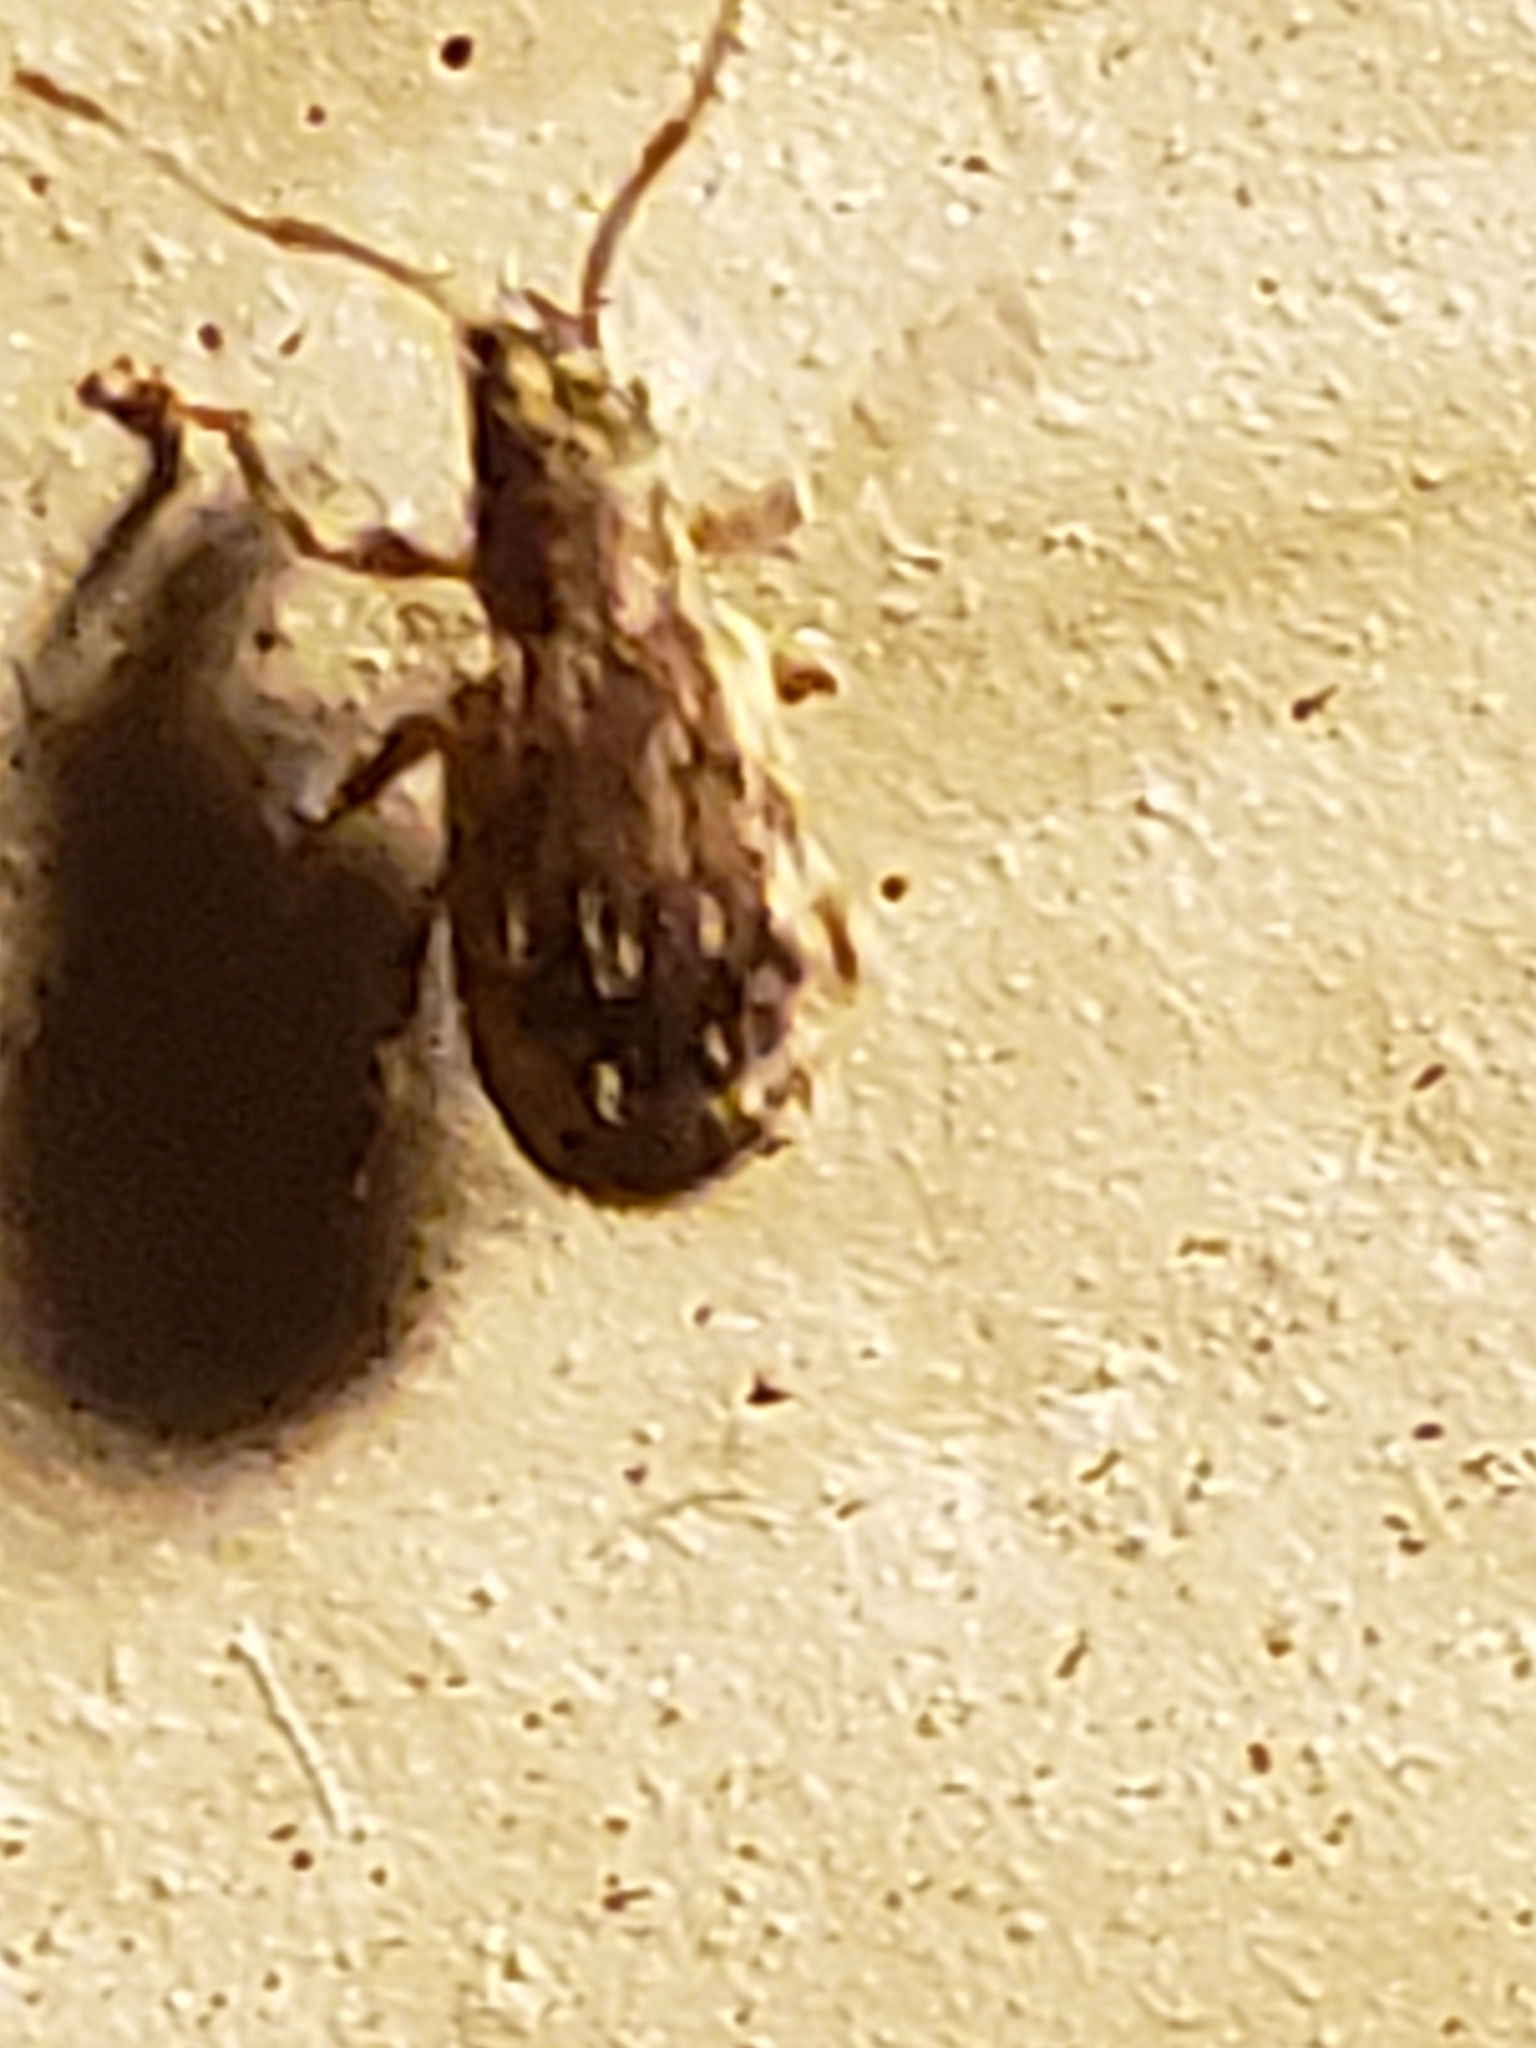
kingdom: Animalia
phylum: Arthropoda
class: Insecta
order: Coleoptera
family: Curculionidae
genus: Pseudoedophrys
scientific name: Pseudoedophrys hilleri
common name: Weevil
